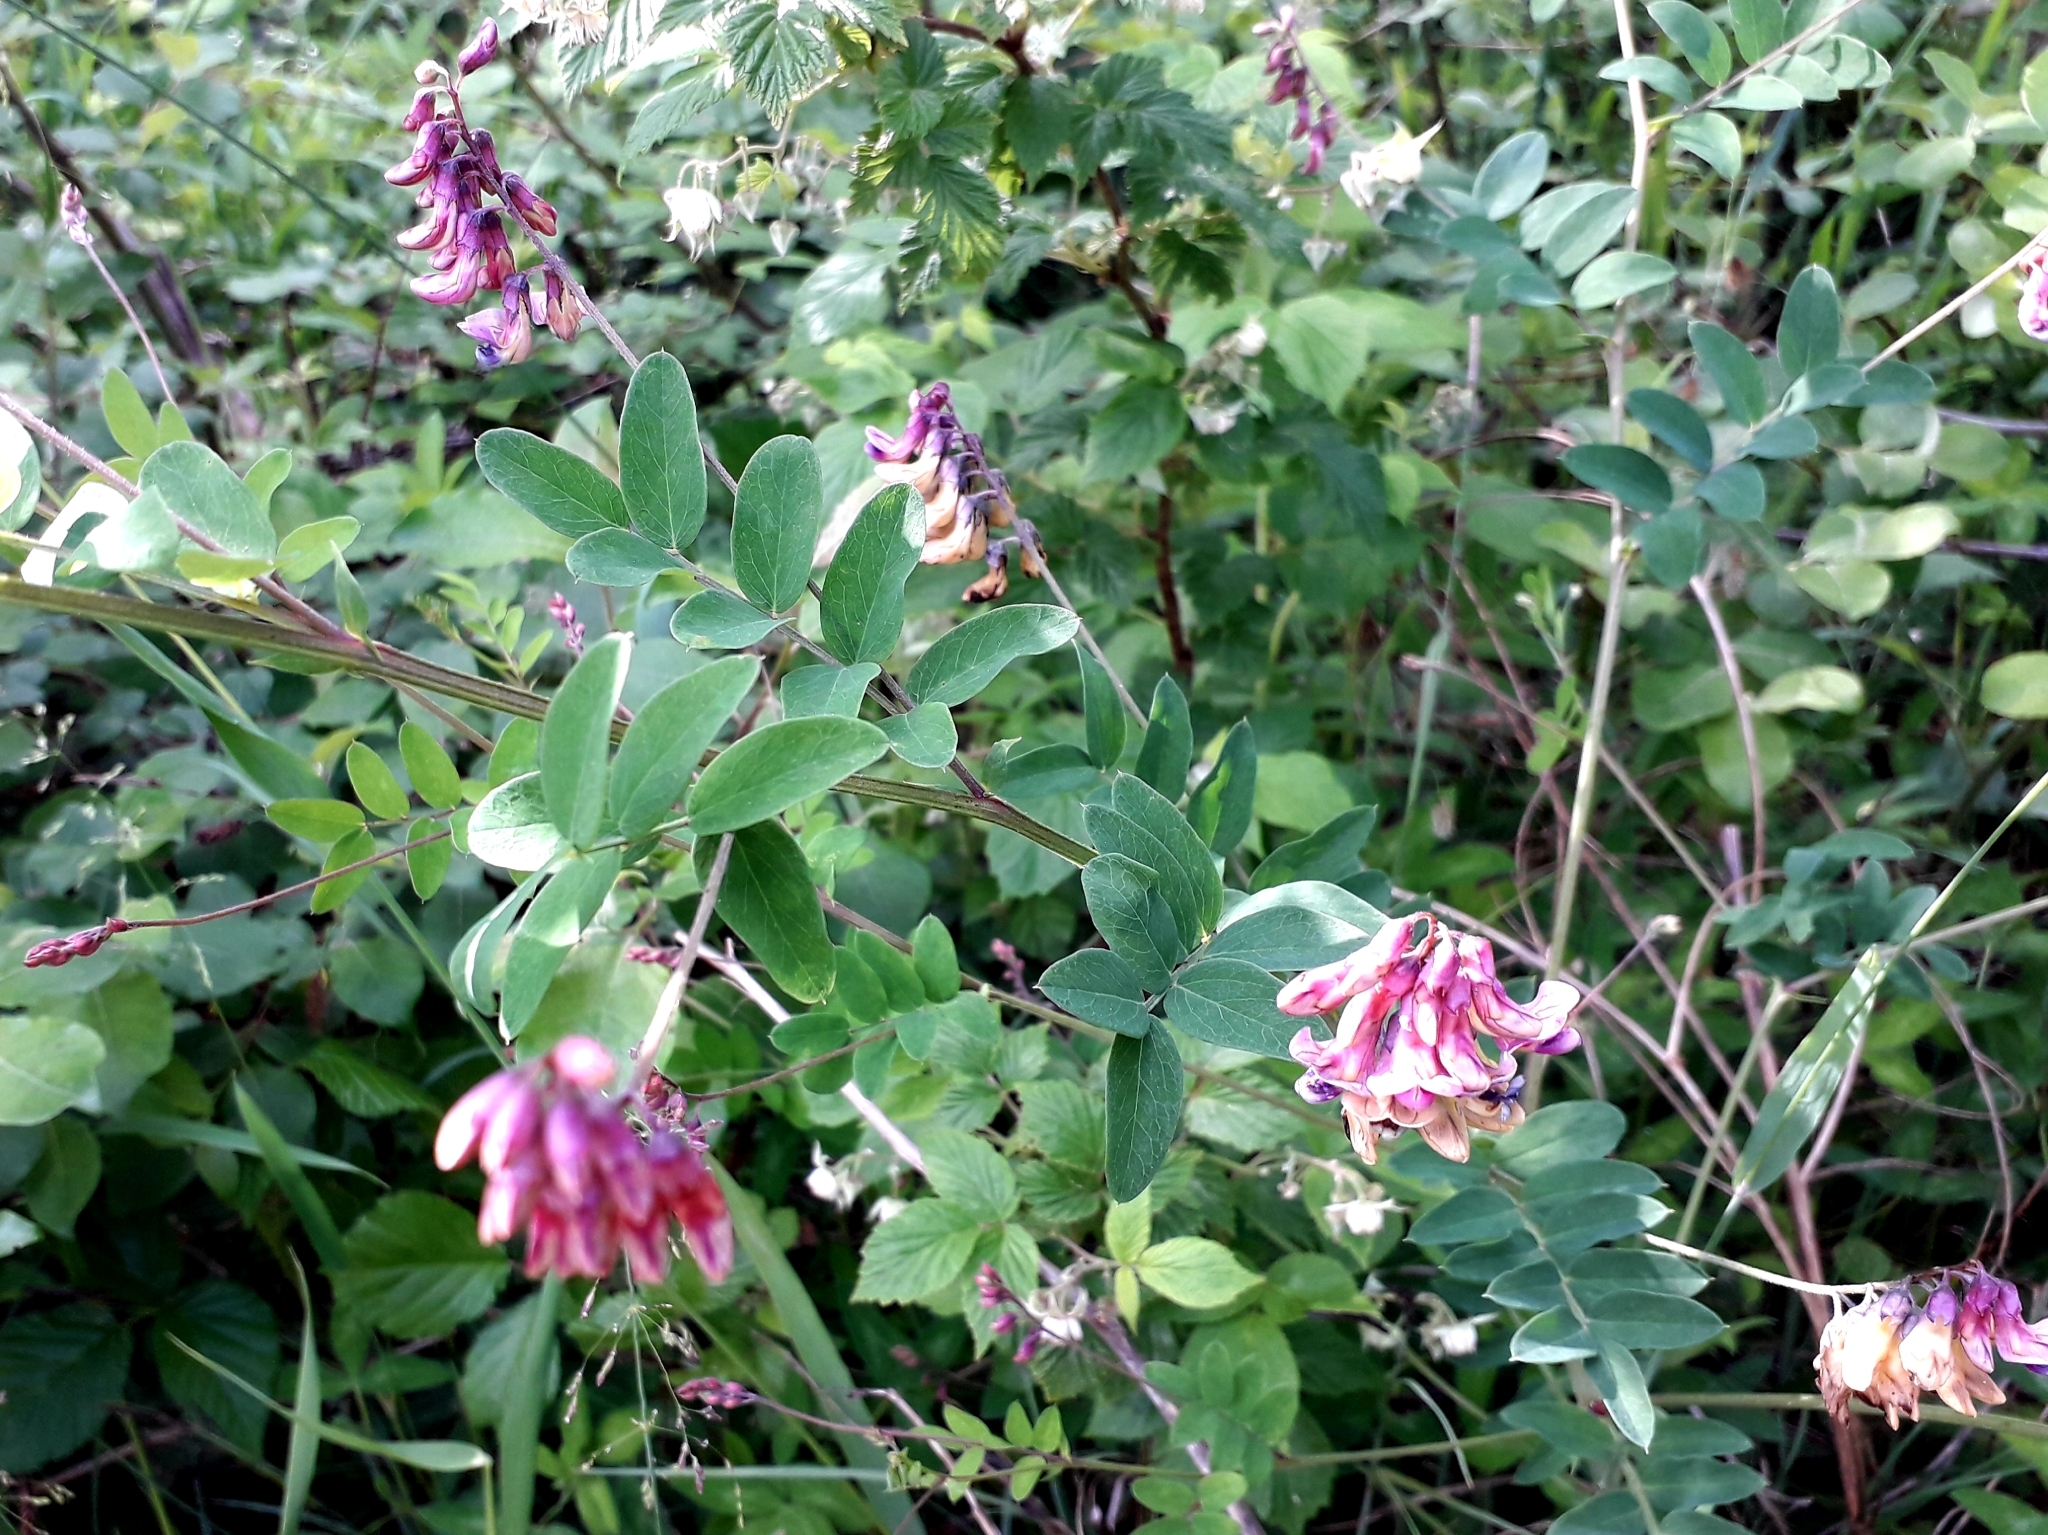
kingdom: Plantae
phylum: Tracheophyta
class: Magnoliopsida
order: Fabales
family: Fabaceae
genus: Lathyrus
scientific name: Lathyrus niger
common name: Black pea
